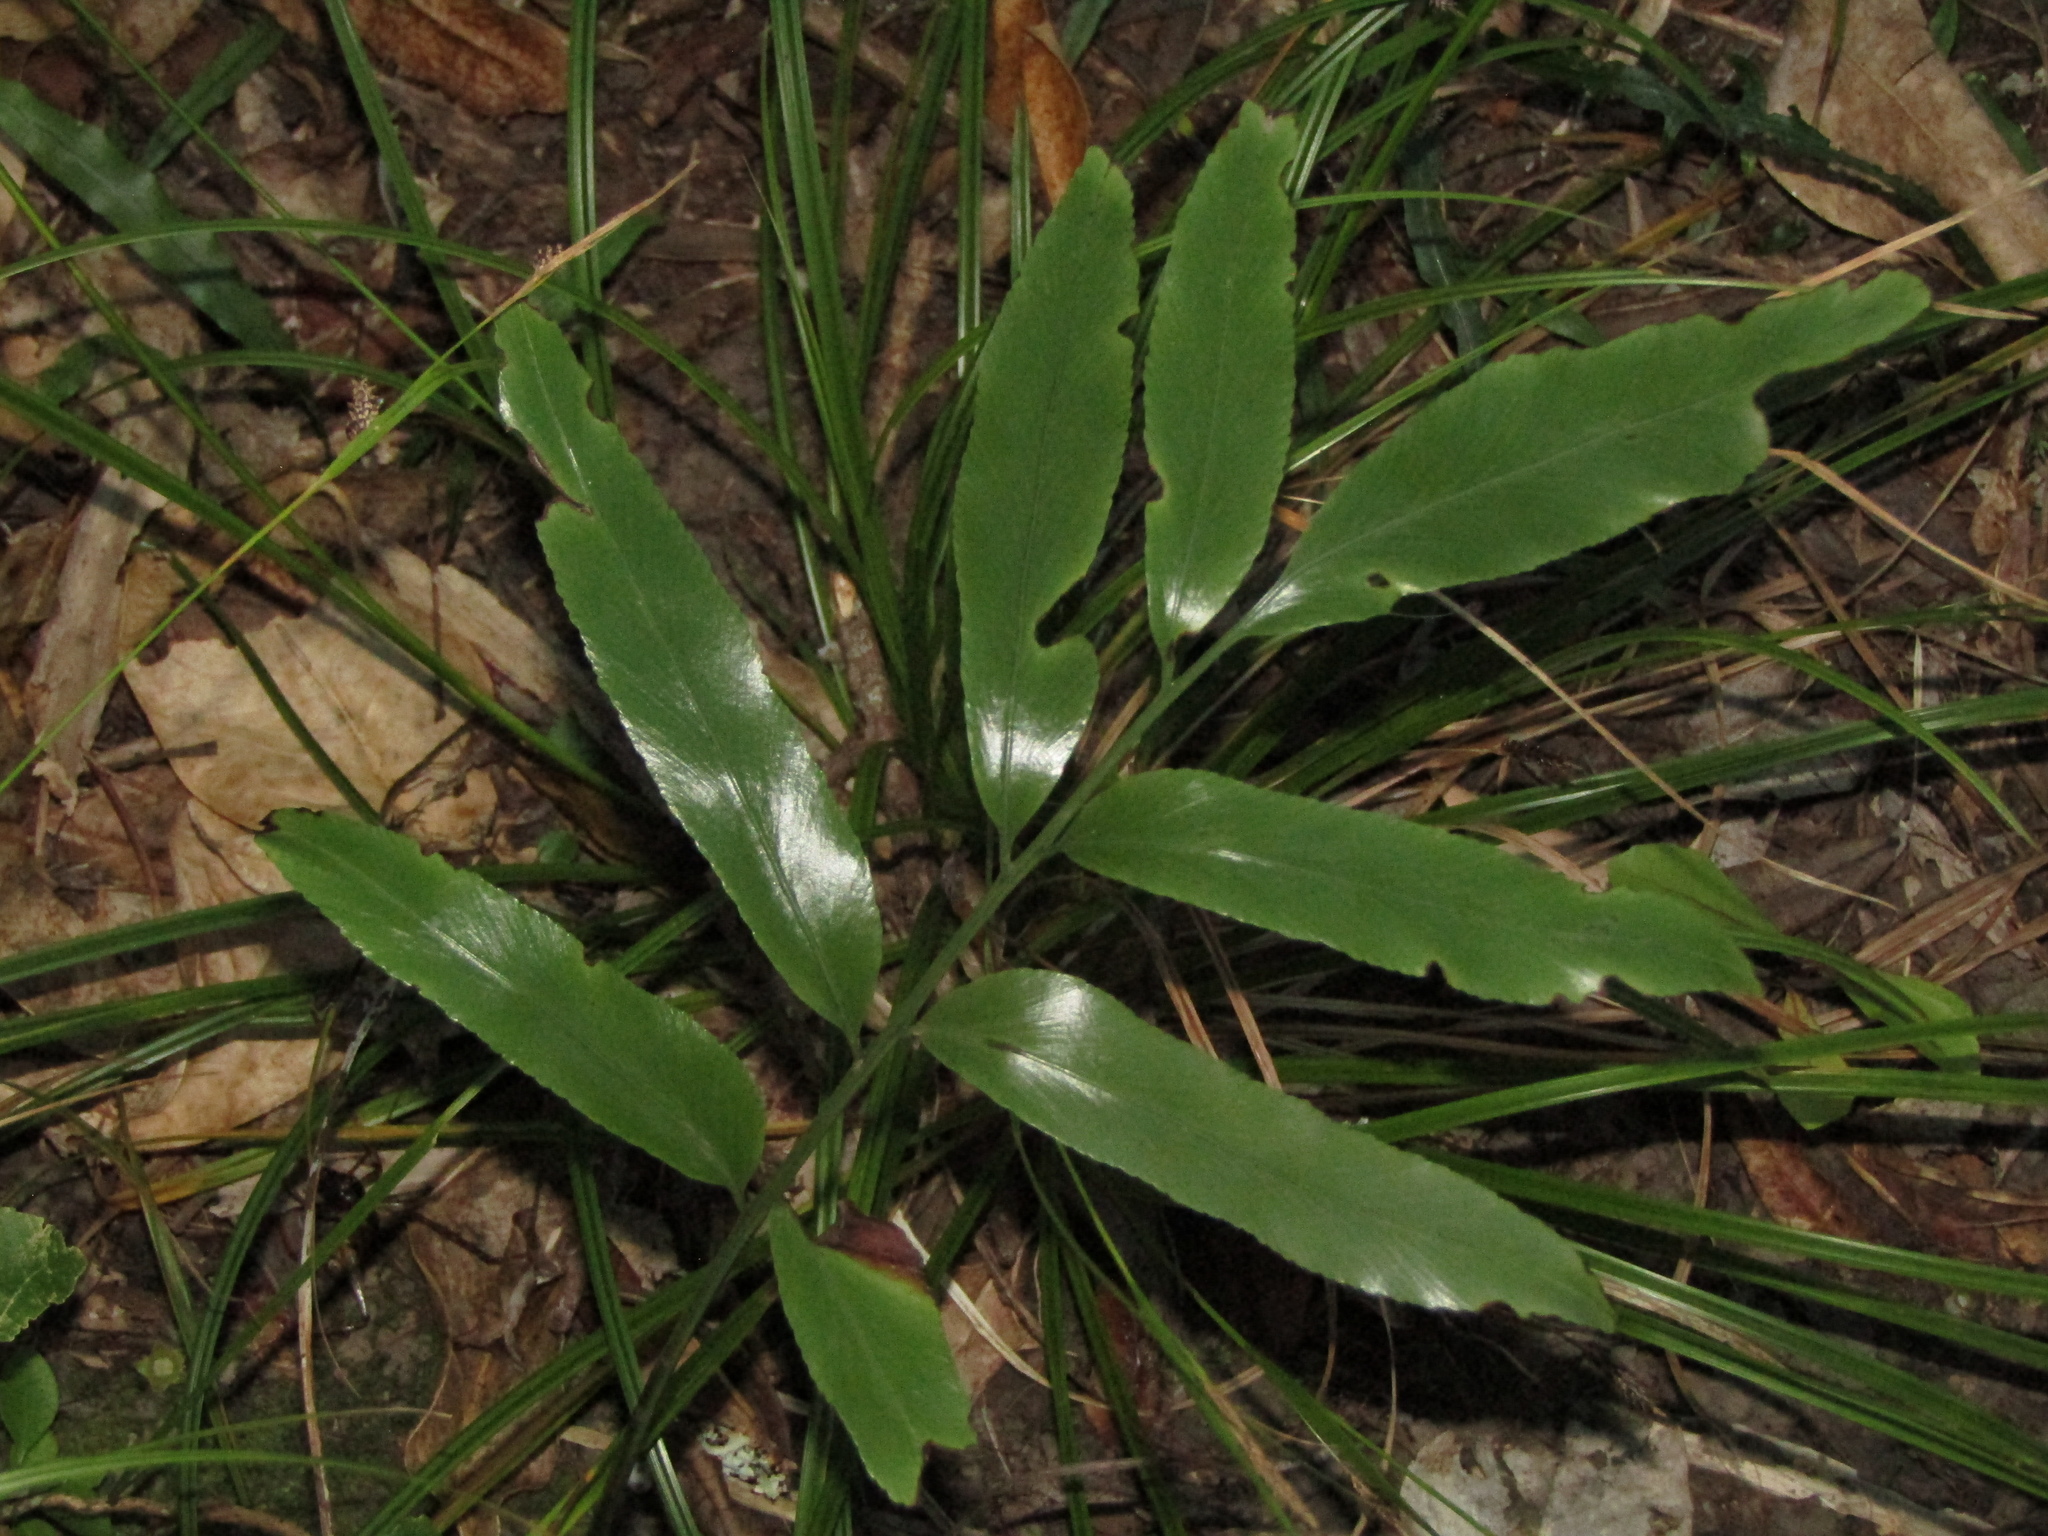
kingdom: Plantae
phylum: Tracheophyta
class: Polypodiopsida
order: Polypodiales
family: Aspleniaceae
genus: Asplenium
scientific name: Asplenium oblongifolium
